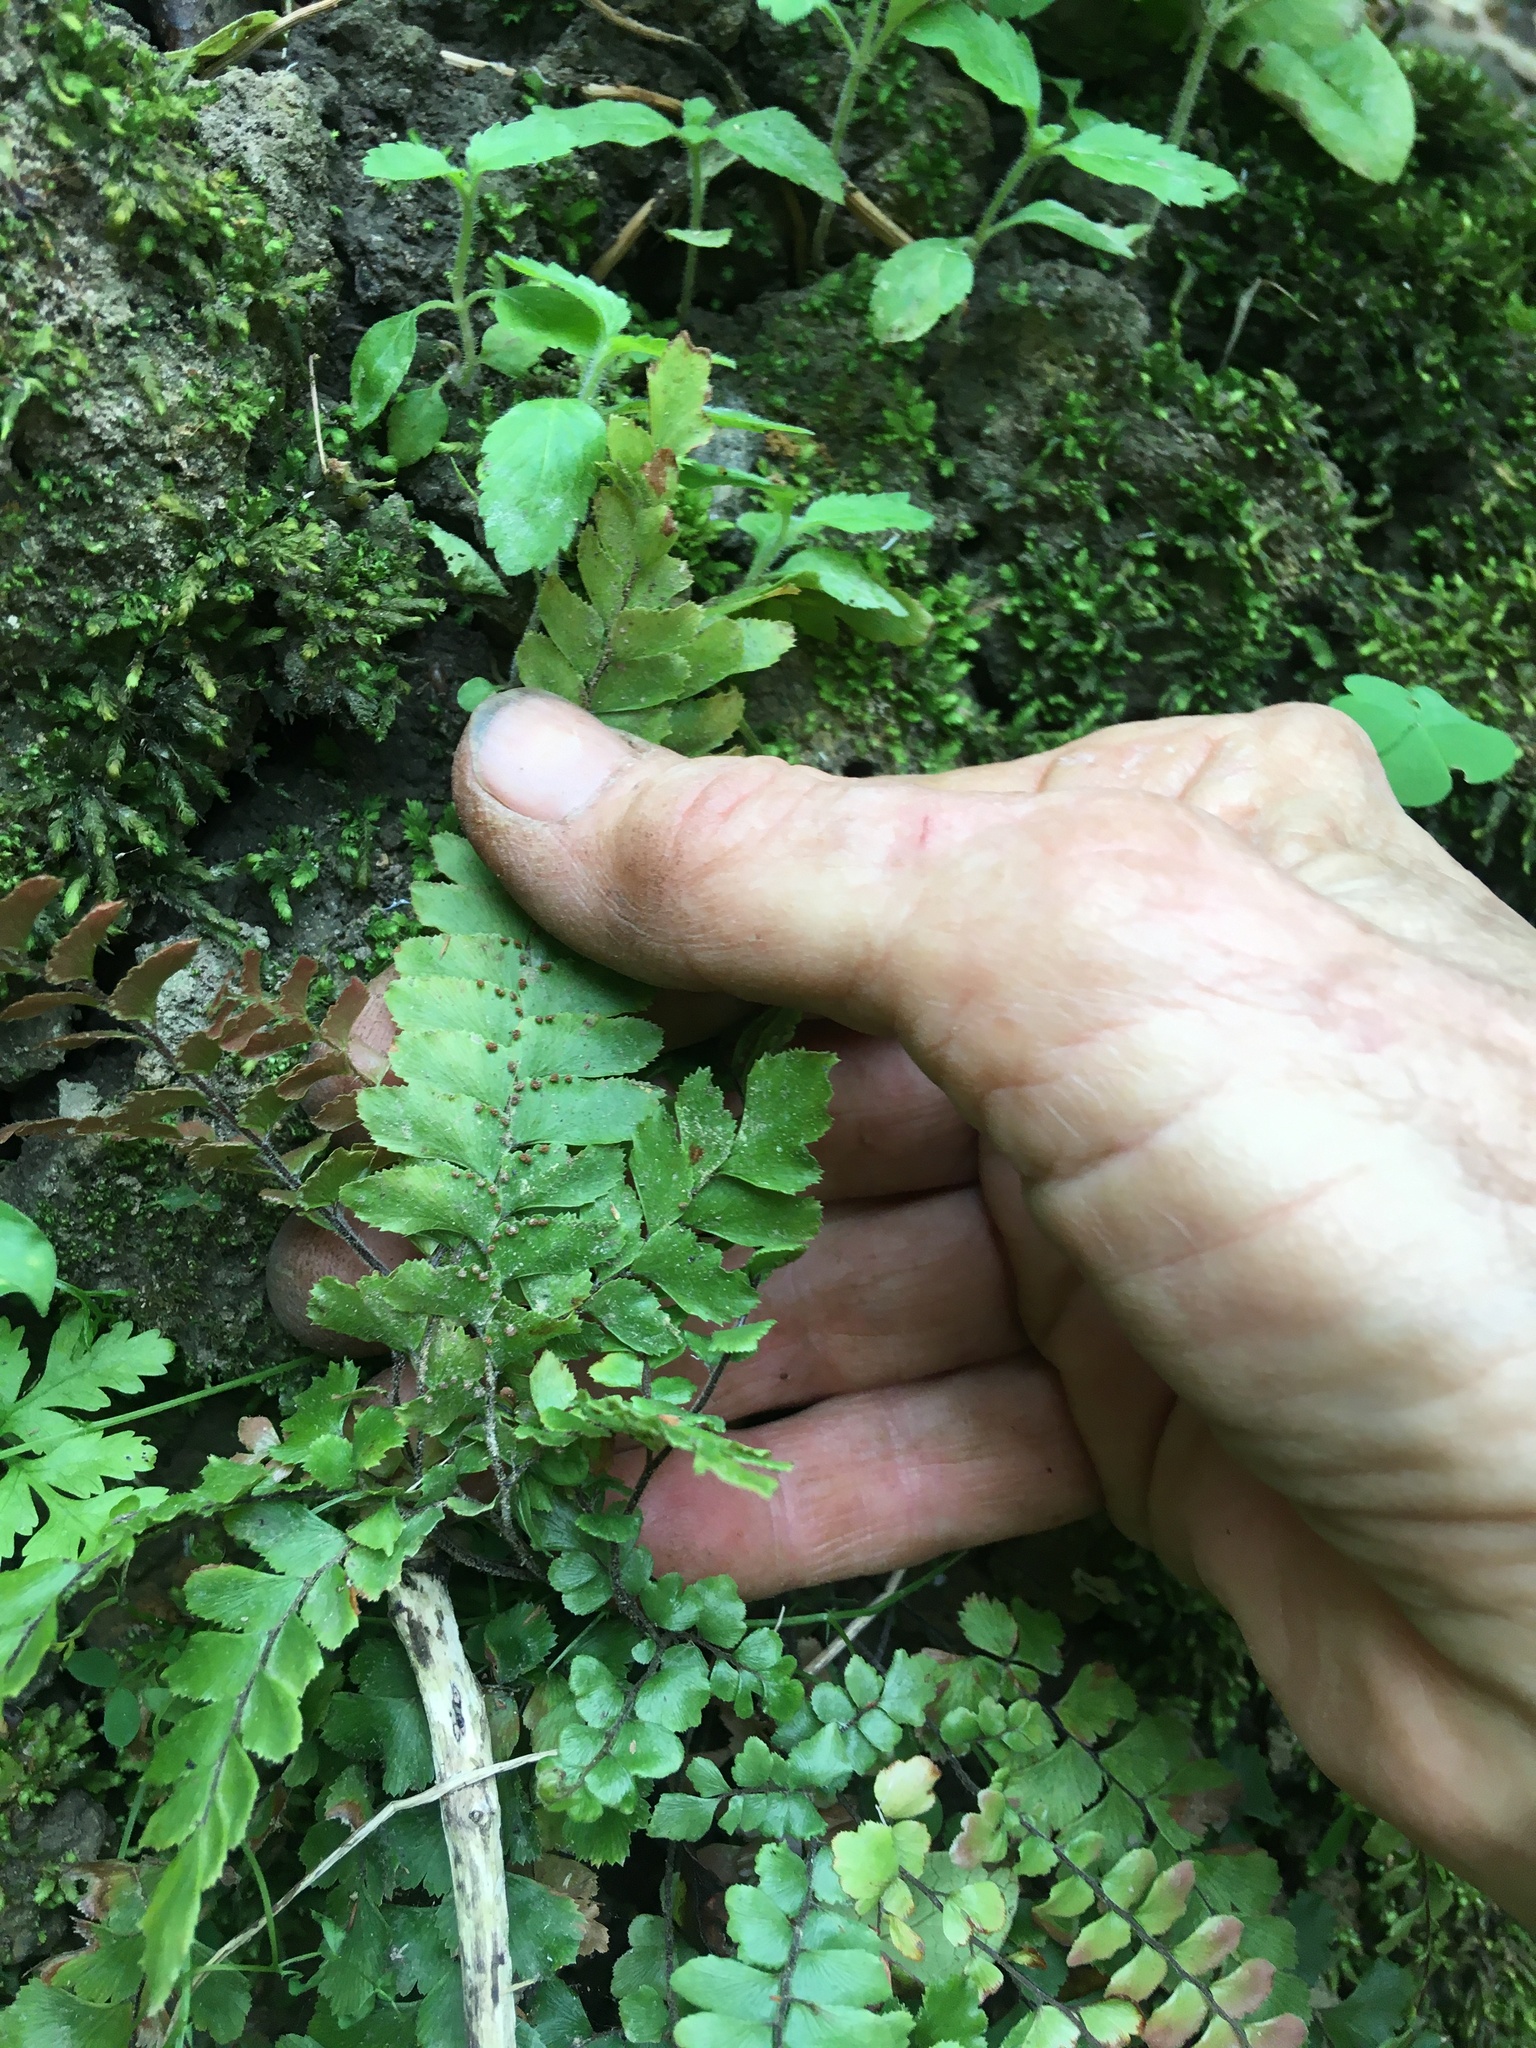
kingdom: Plantae
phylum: Tracheophyta
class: Polypodiopsida
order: Polypodiales
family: Pteridaceae
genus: Adiantum
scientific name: Adiantum hispidulum
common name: Rough maidenhair
